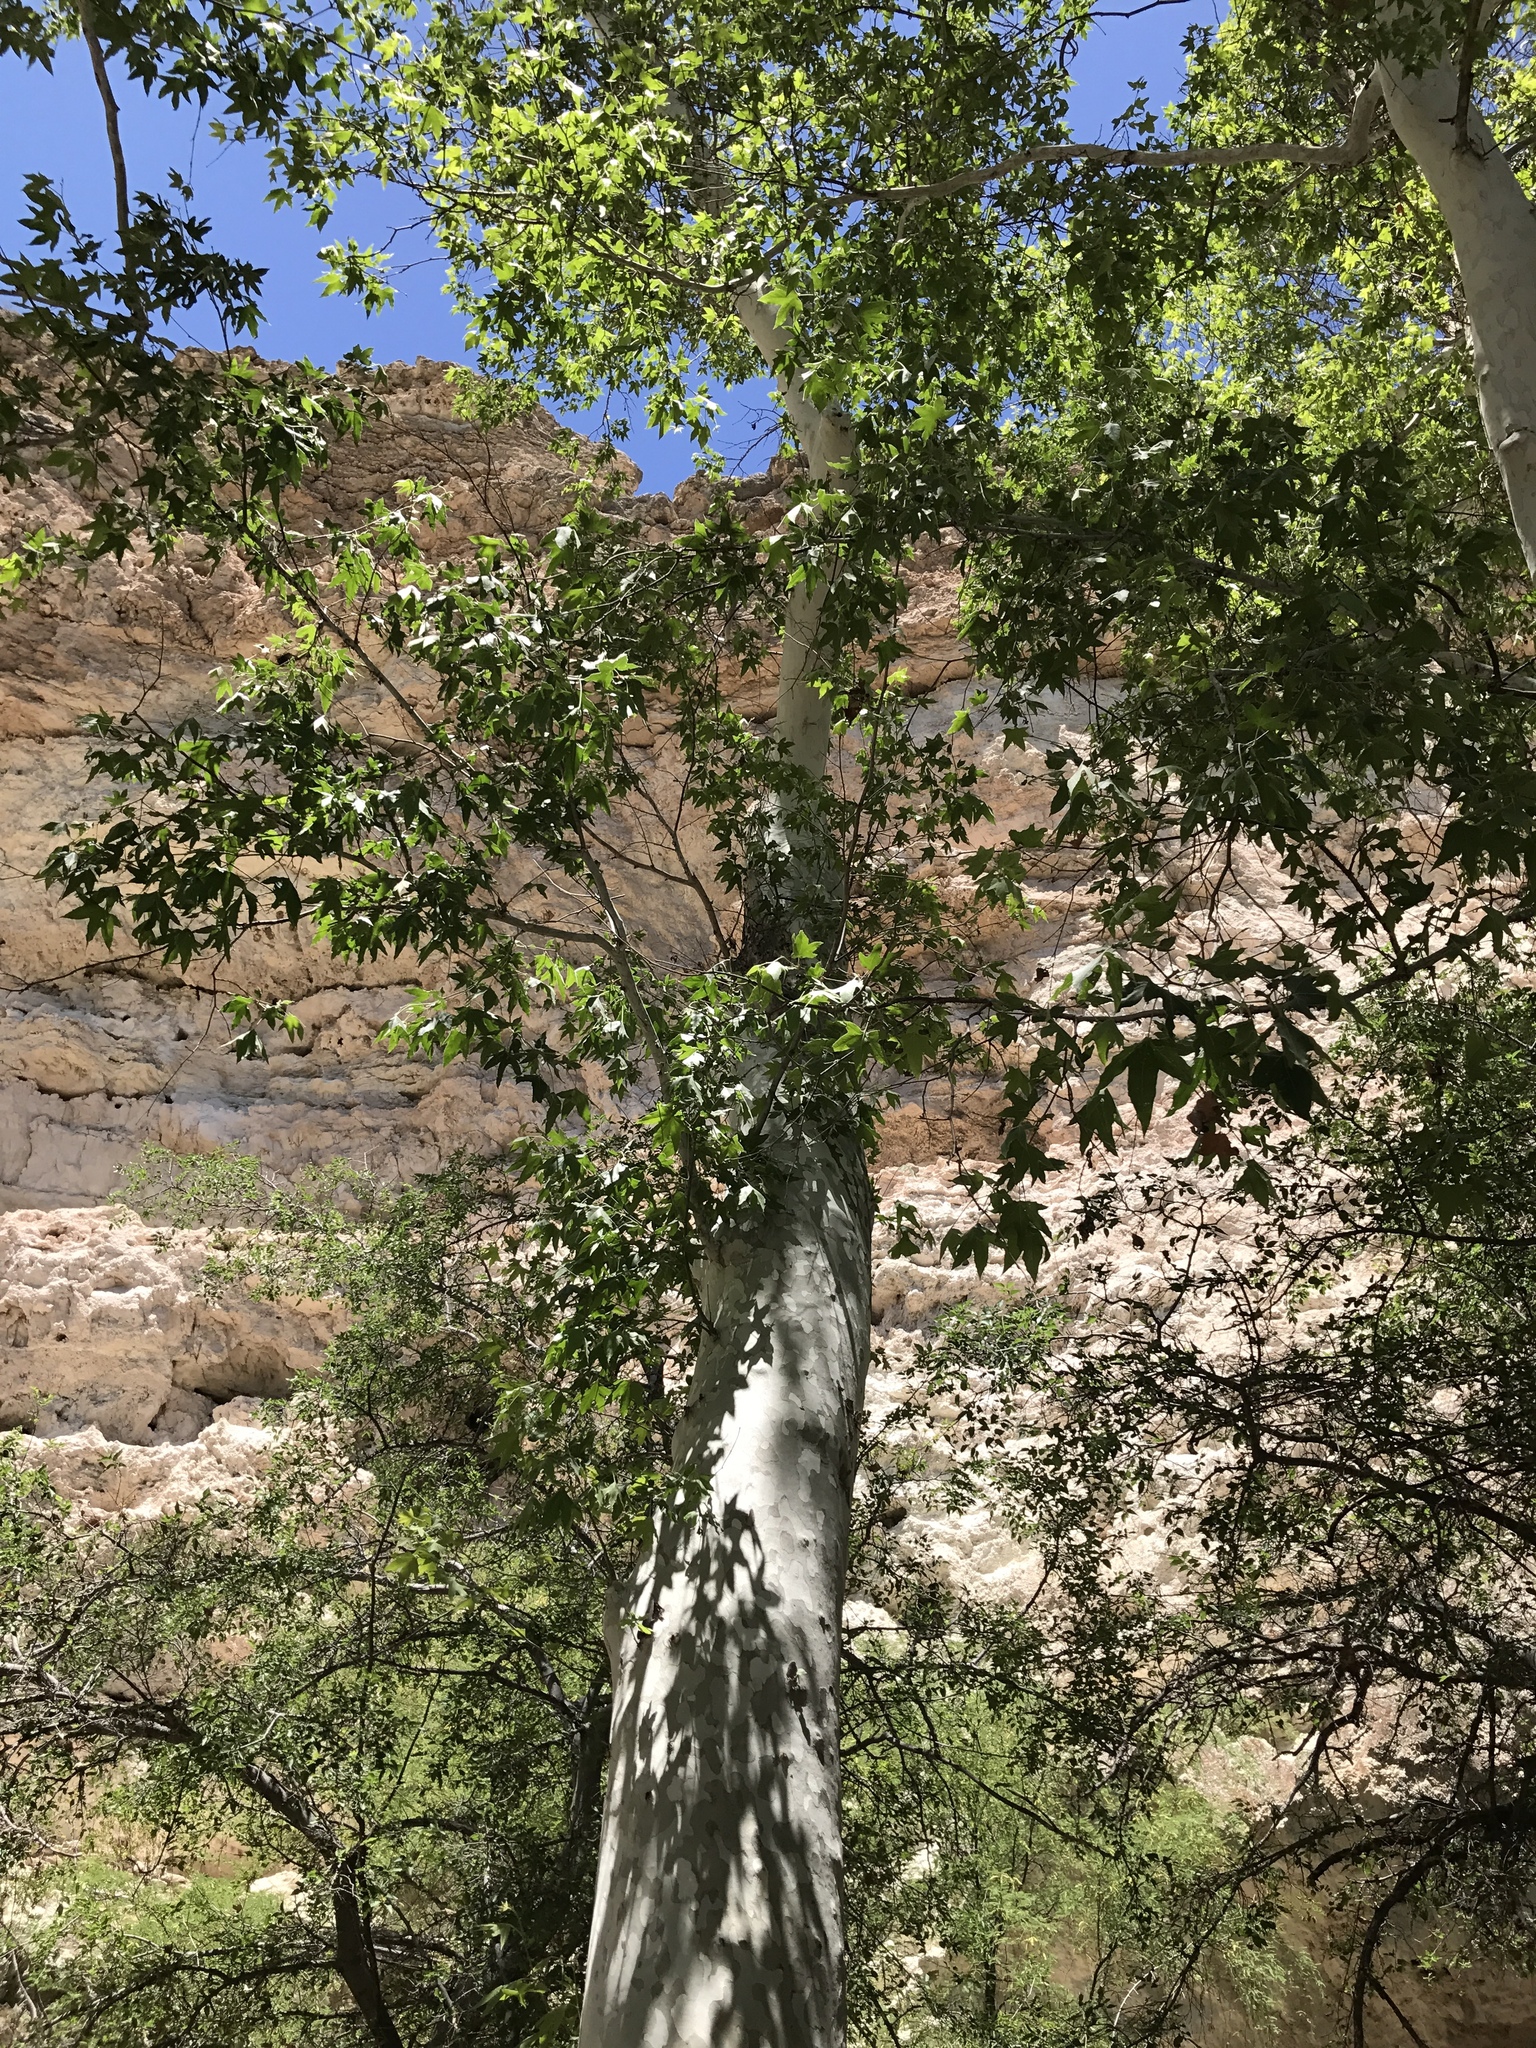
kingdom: Plantae
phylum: Tracheophyta
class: Magnoliopsida
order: Proteales
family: Platanaceae
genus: Platanus
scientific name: Platanus wrightii
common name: Arizona sycamore
